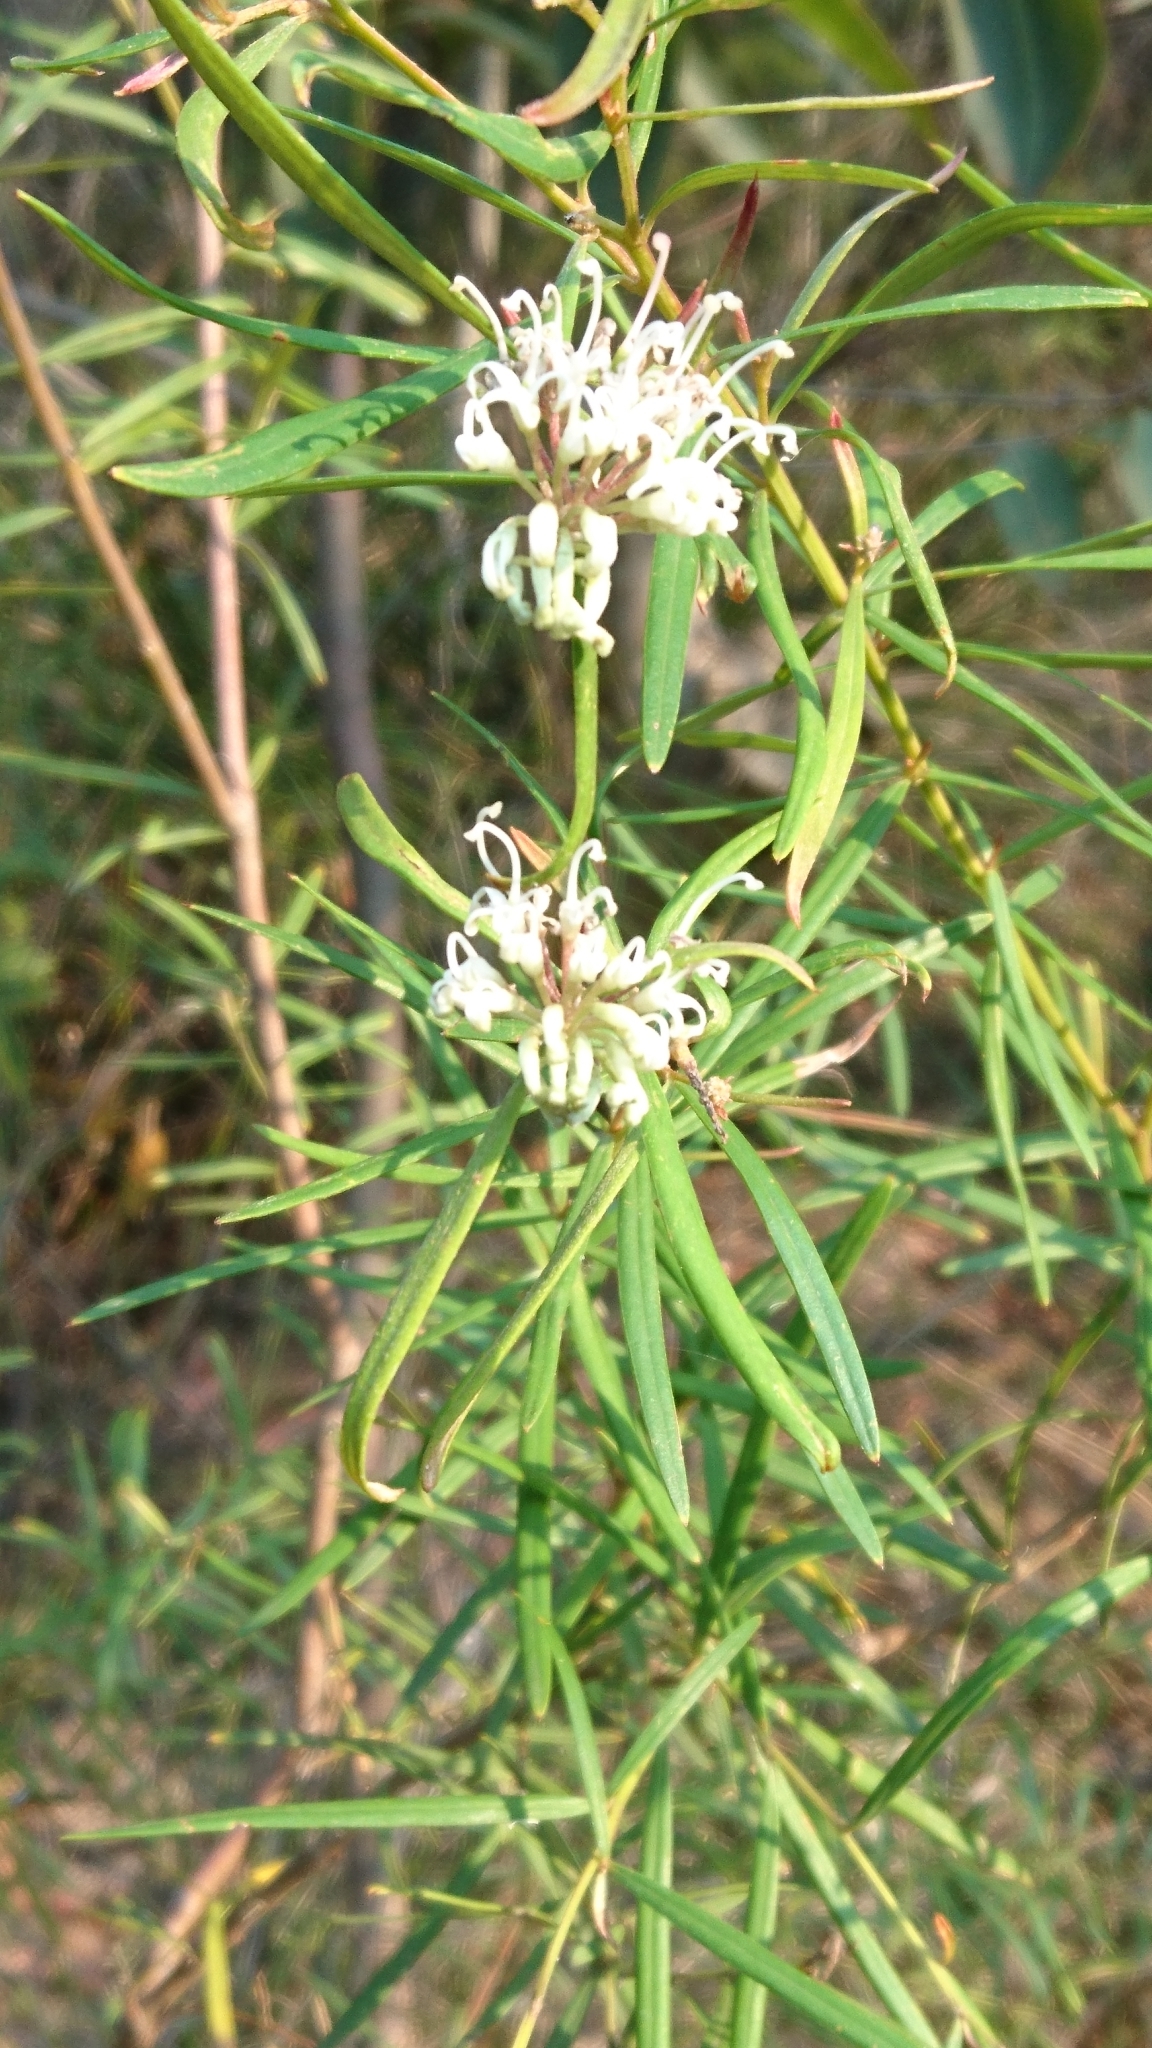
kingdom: Plantae
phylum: Tracheophyta
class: Magnoliopsida
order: Proteales
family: Proteaceae
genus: Grevillea
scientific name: Grevillea linearifolia
